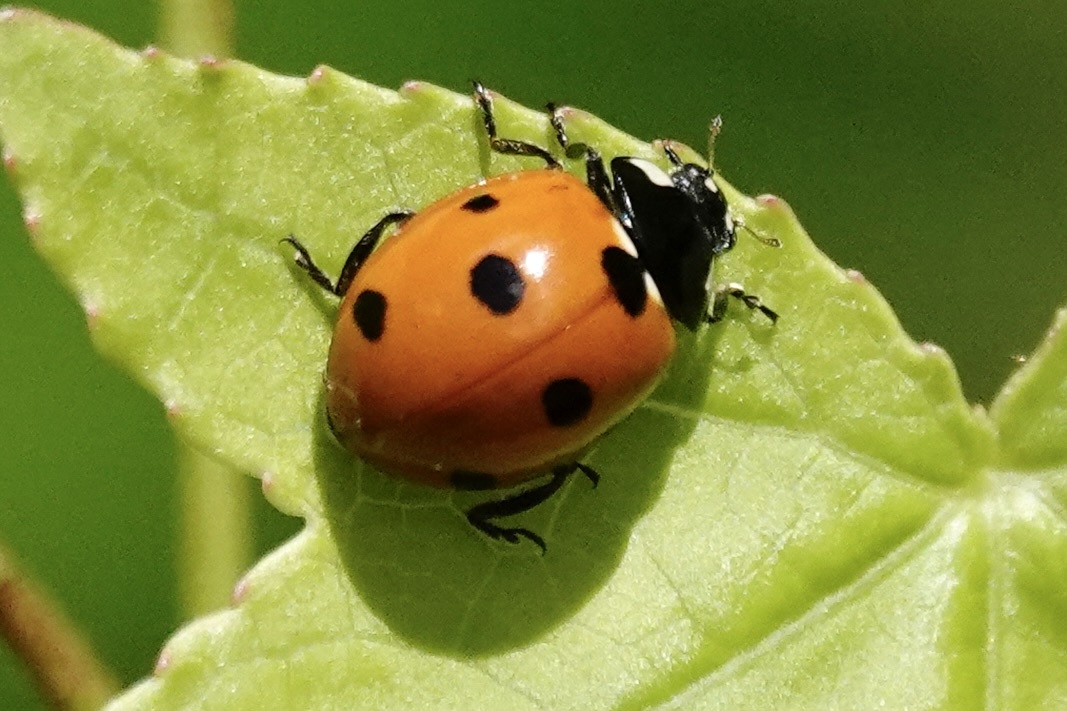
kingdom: Animalia
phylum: Arthropoda
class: Insecta
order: Coleoptera
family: Coccinellidae
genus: Coccinella
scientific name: Coccinella septempunctata
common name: Sevenspotted lady beetle
